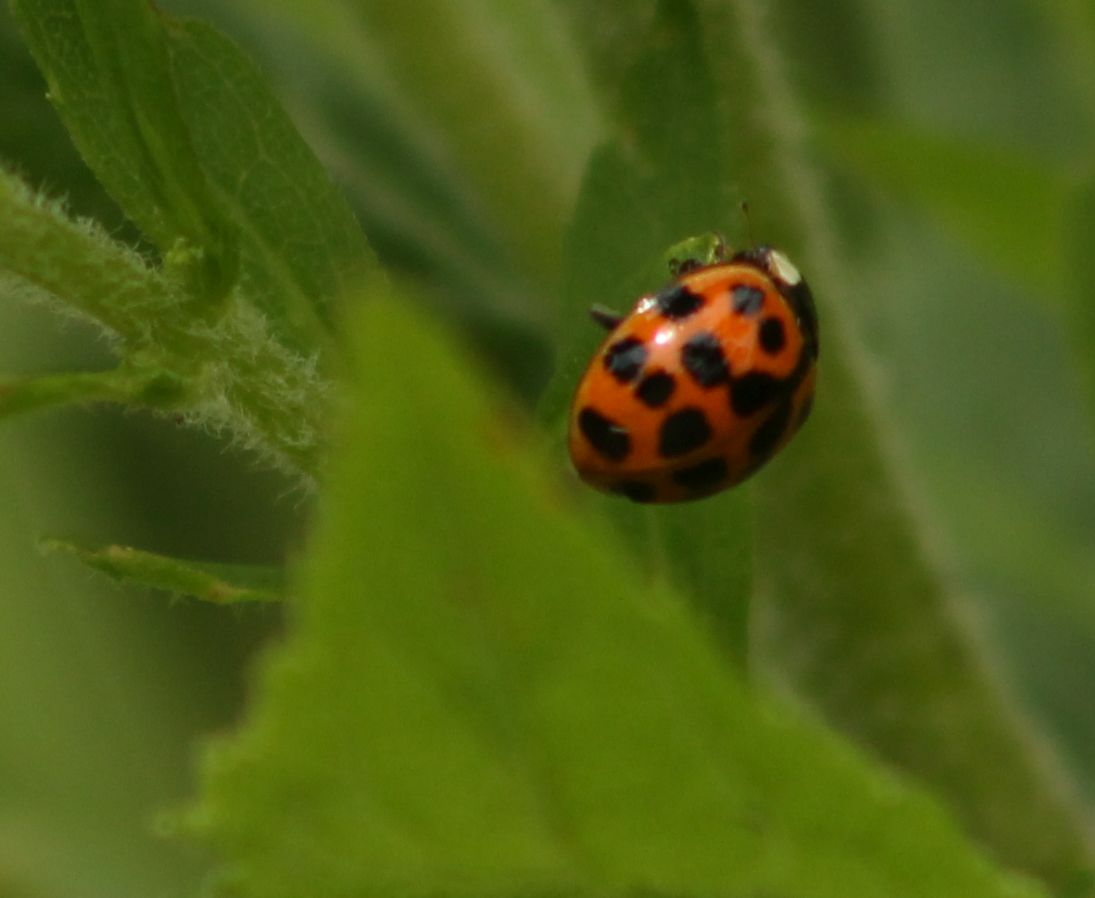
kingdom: Animalia
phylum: Arthropoda
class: Insecta
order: Coleoptera
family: Coccinellidae
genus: Harmonia
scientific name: Harmonia axyridis
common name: Harlequin ladybird
